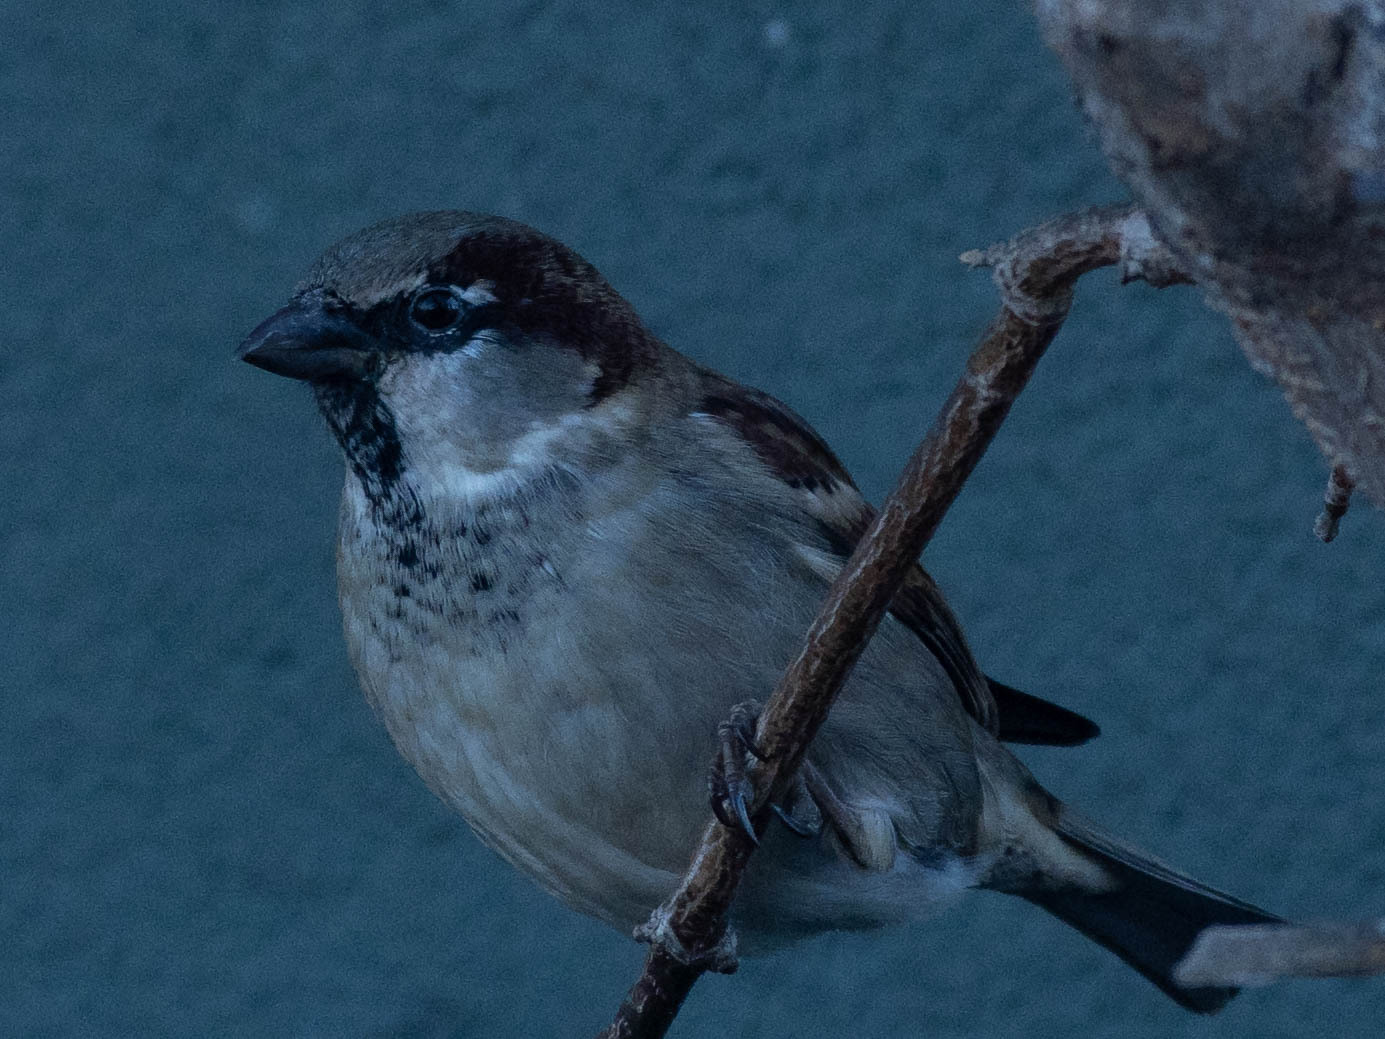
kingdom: Animalia
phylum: Chordata
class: Aves
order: Passeriformes
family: Passeridae
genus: Passer
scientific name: Passer domesticus
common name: House sparrow
